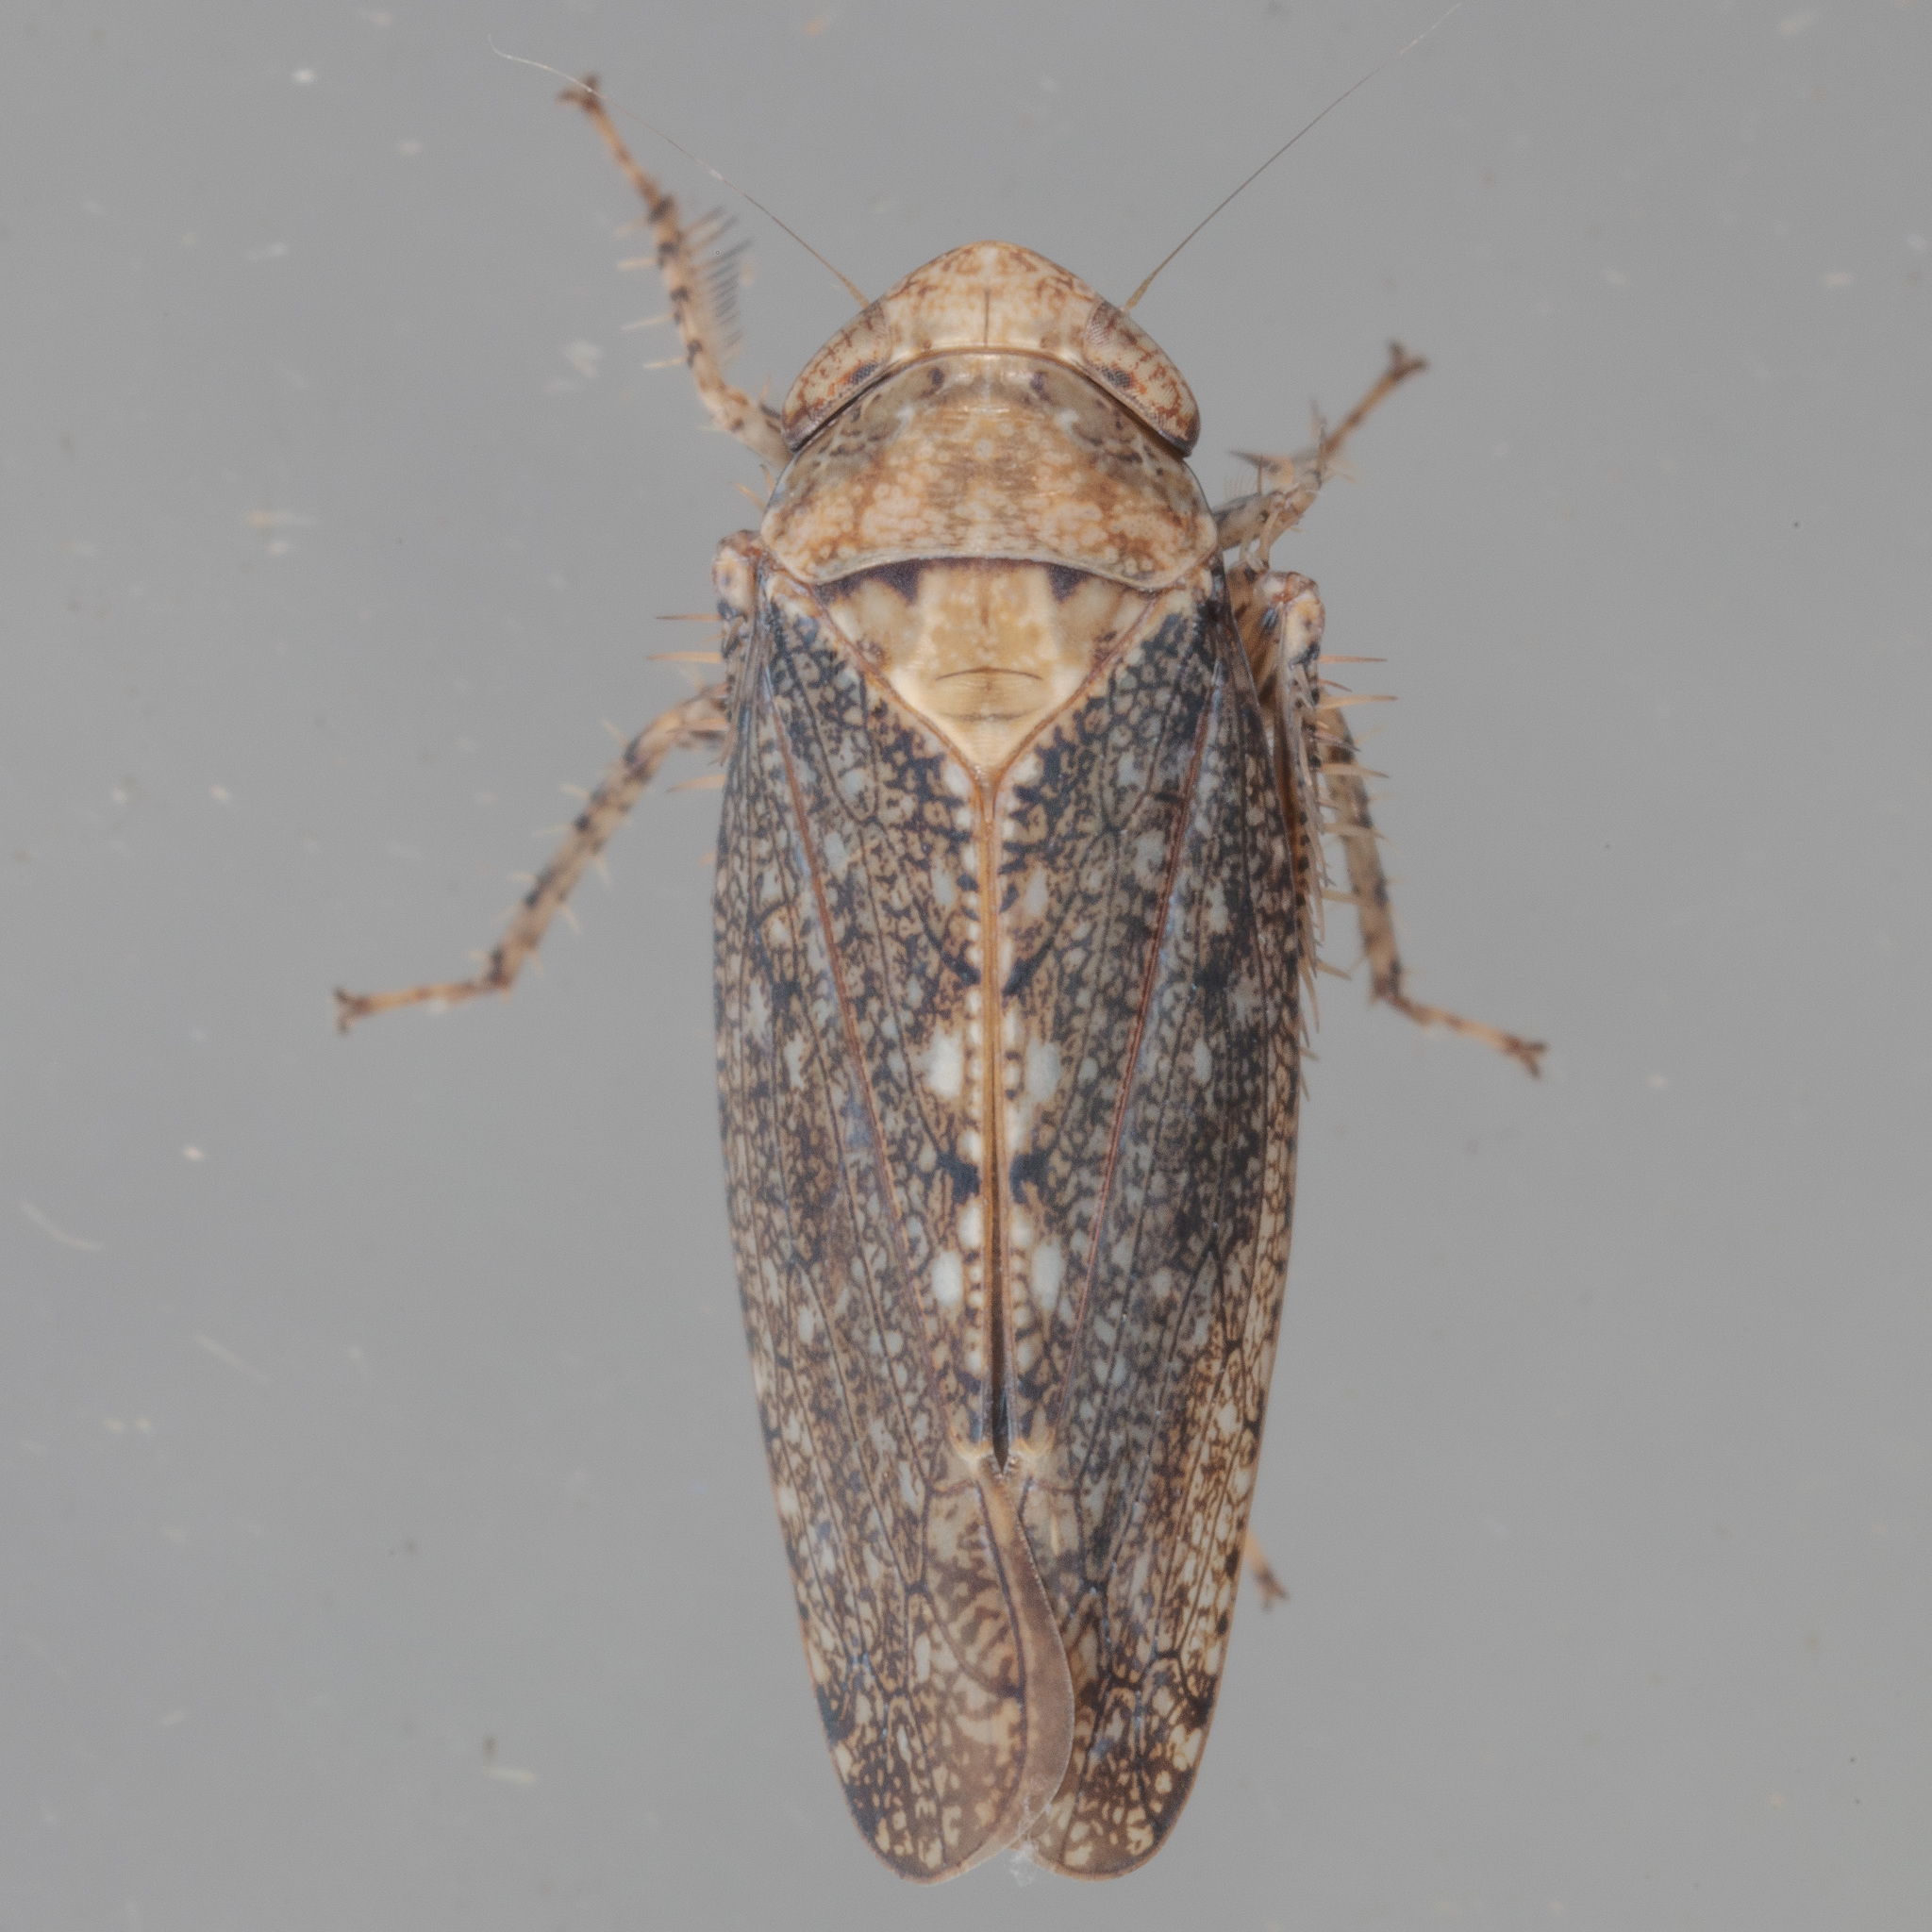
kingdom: Animalia
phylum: Arthropoda
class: Insecta
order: Hemiptera
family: Cicadellidae
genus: Excultanus
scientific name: Excultanus excultus
